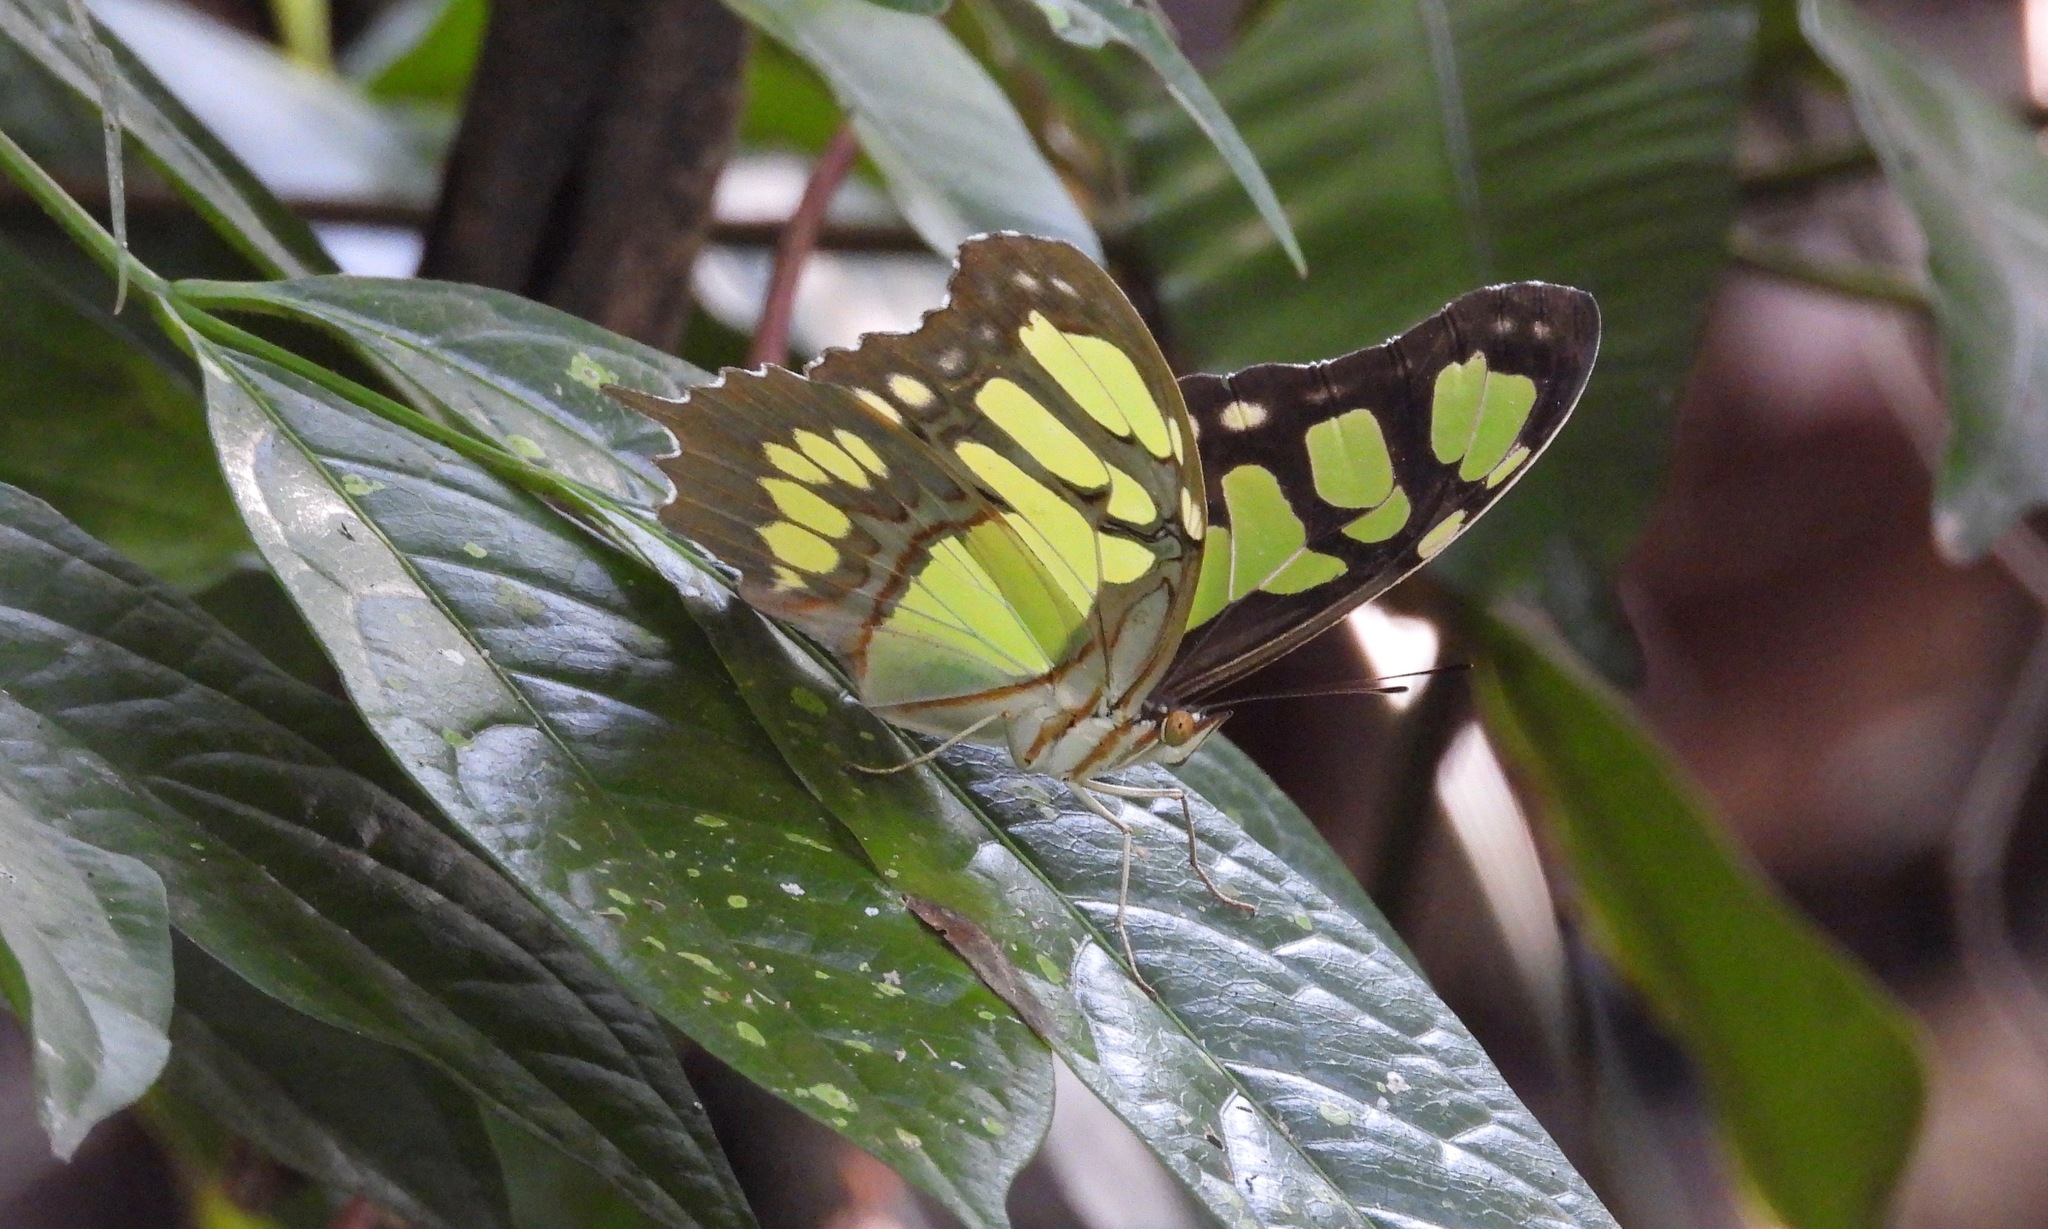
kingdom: Animalia
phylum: Arthropoda
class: Insecta
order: Lepidoptera
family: Nymphalidae
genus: Siproeta
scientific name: Siproeta stelenes
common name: Malachite
